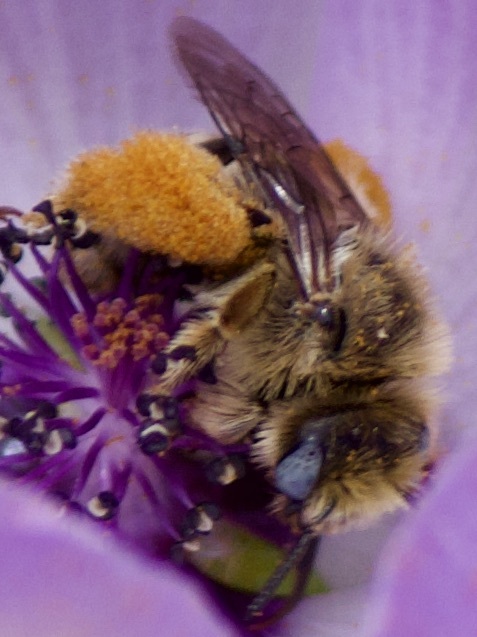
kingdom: Animalia
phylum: Arthropoda
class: Insecta
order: Hymenoptera
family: Apidae
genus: Diadasia
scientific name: Diadasia chilensis
